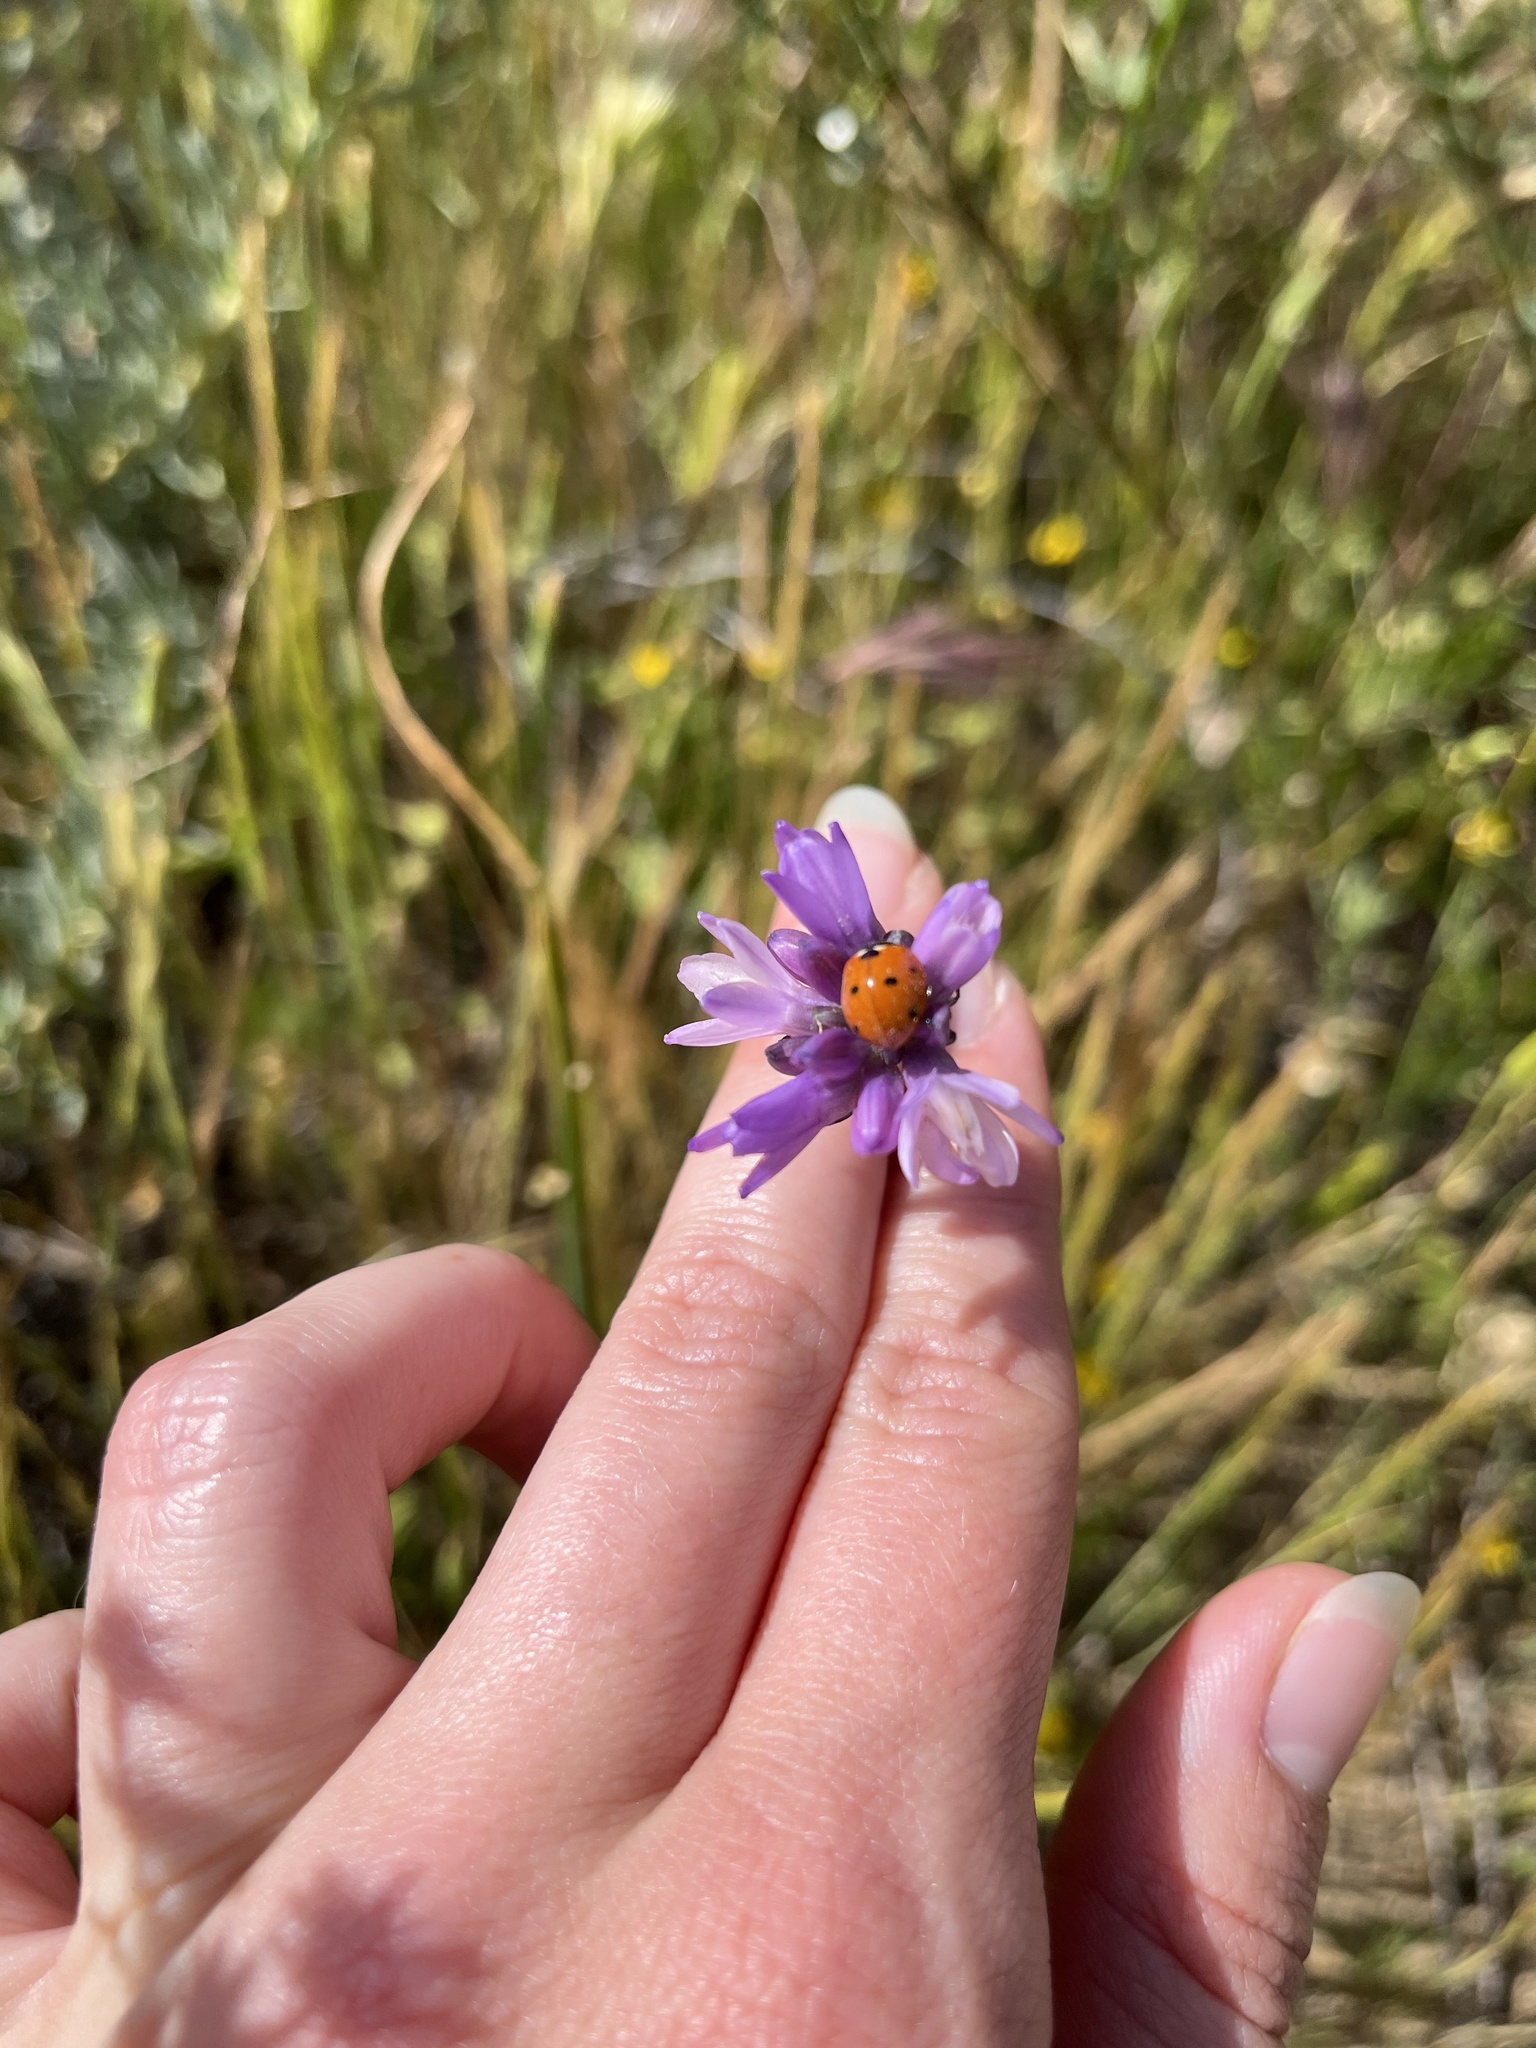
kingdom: Plantae
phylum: Tracheophyta
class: Liliopsida
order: Asparagales
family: Asparagaceae
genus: Dipterostemon
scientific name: Dipterostemon capitatus
